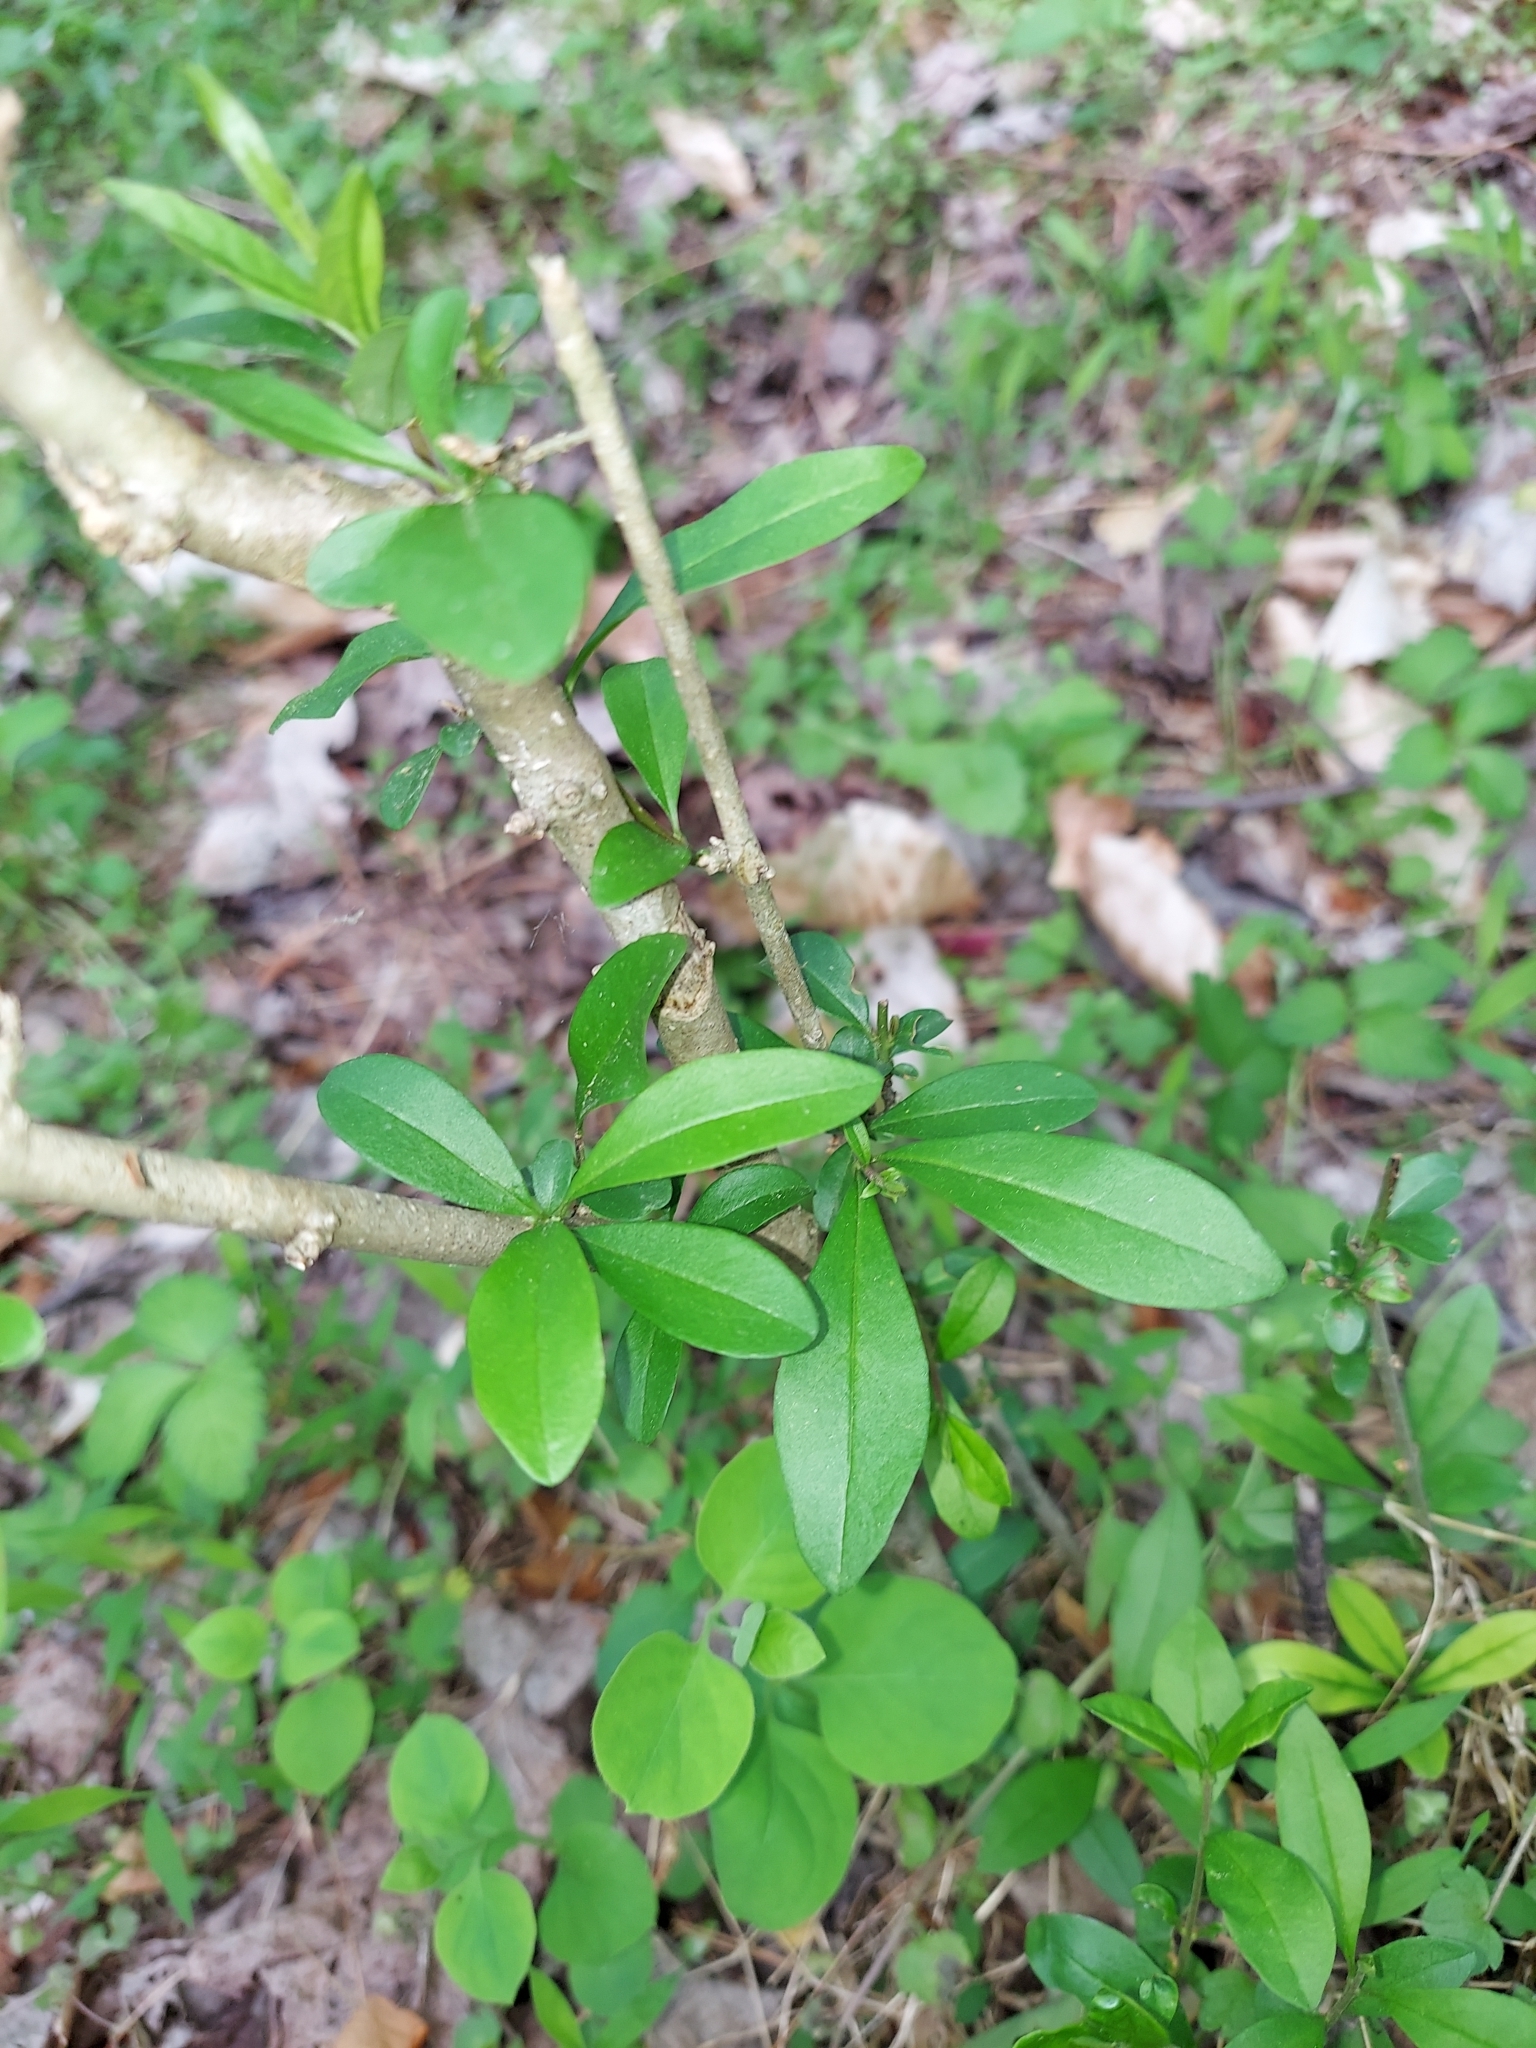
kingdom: Plantae
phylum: Tracheophyta
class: Magnoliopsida
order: Lamiales
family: Oleaceae
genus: Ligustrum
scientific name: Ligustrum obtusifolium
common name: Border privet
